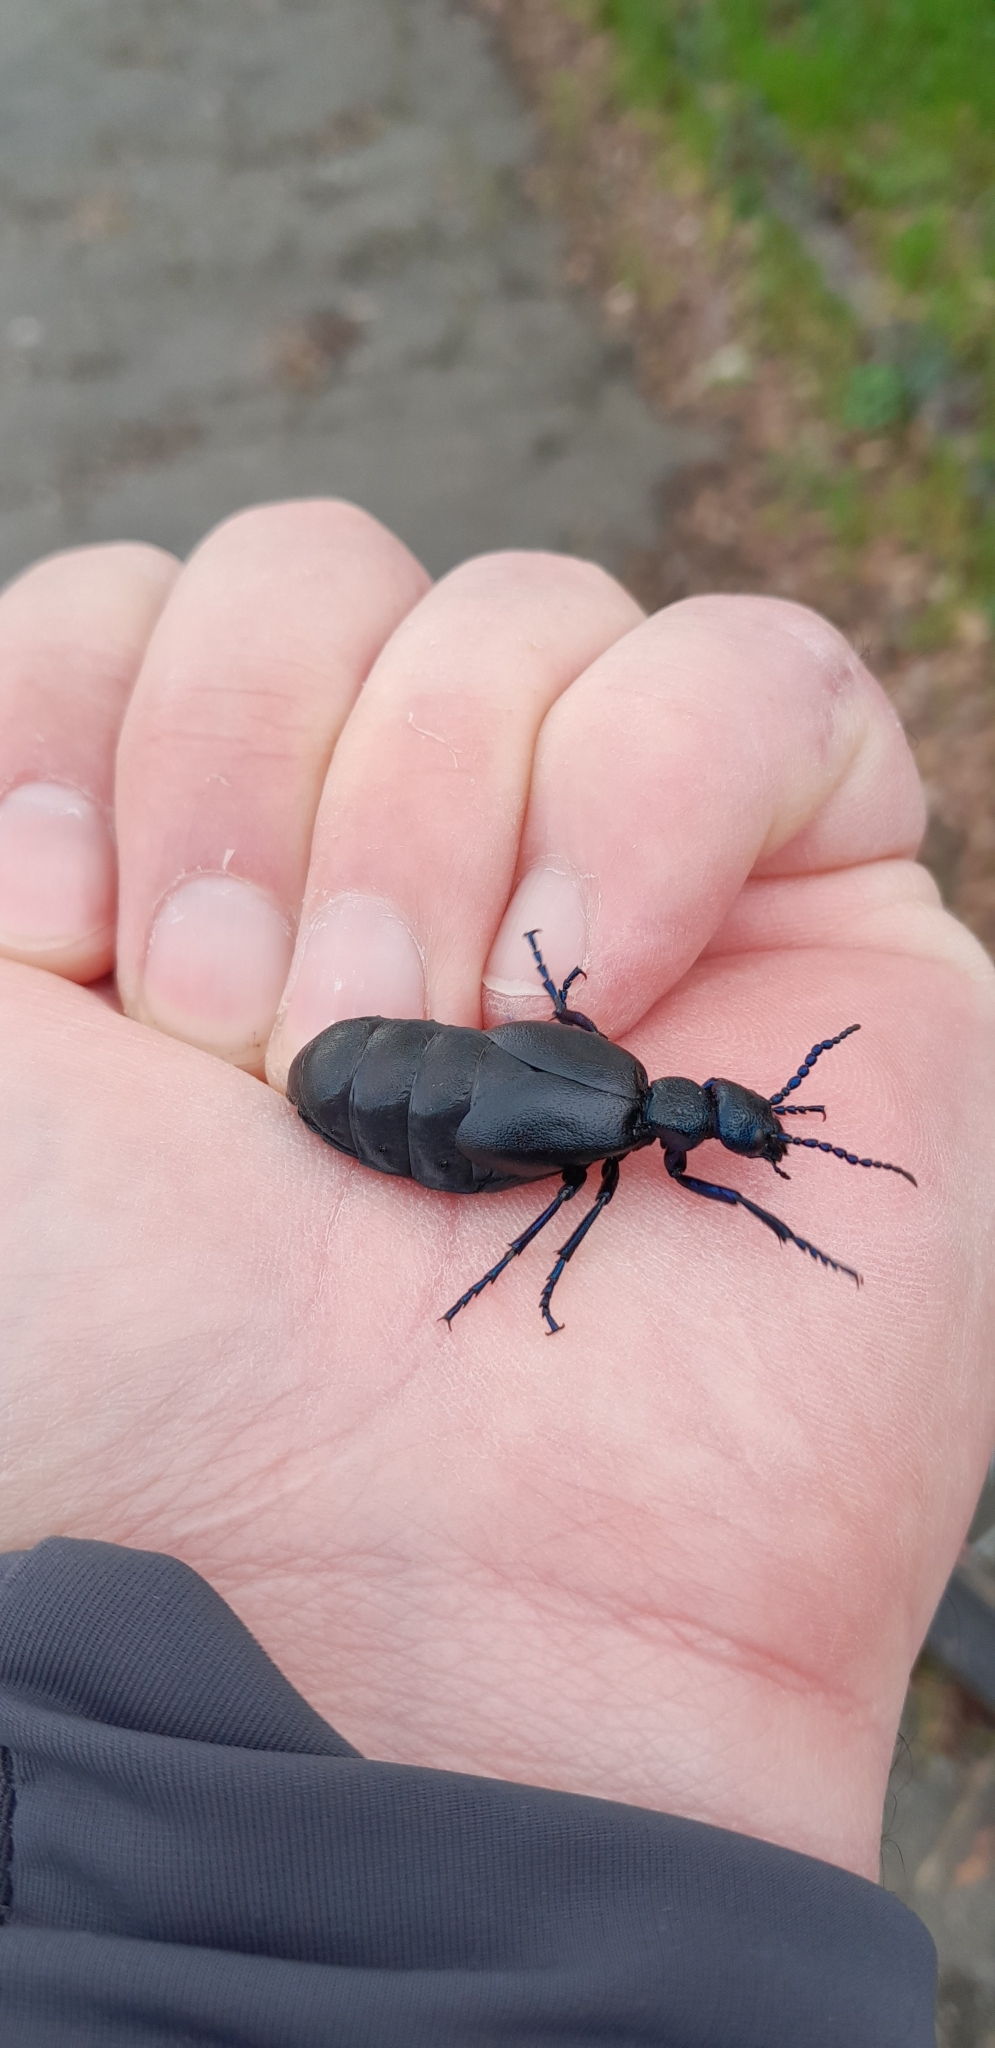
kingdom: Animalia
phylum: Arthropoda
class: Insecta
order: Coleoptera
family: Meloidae
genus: Meloe
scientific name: Meloe proscarabaeus
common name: Black oil-beetle
